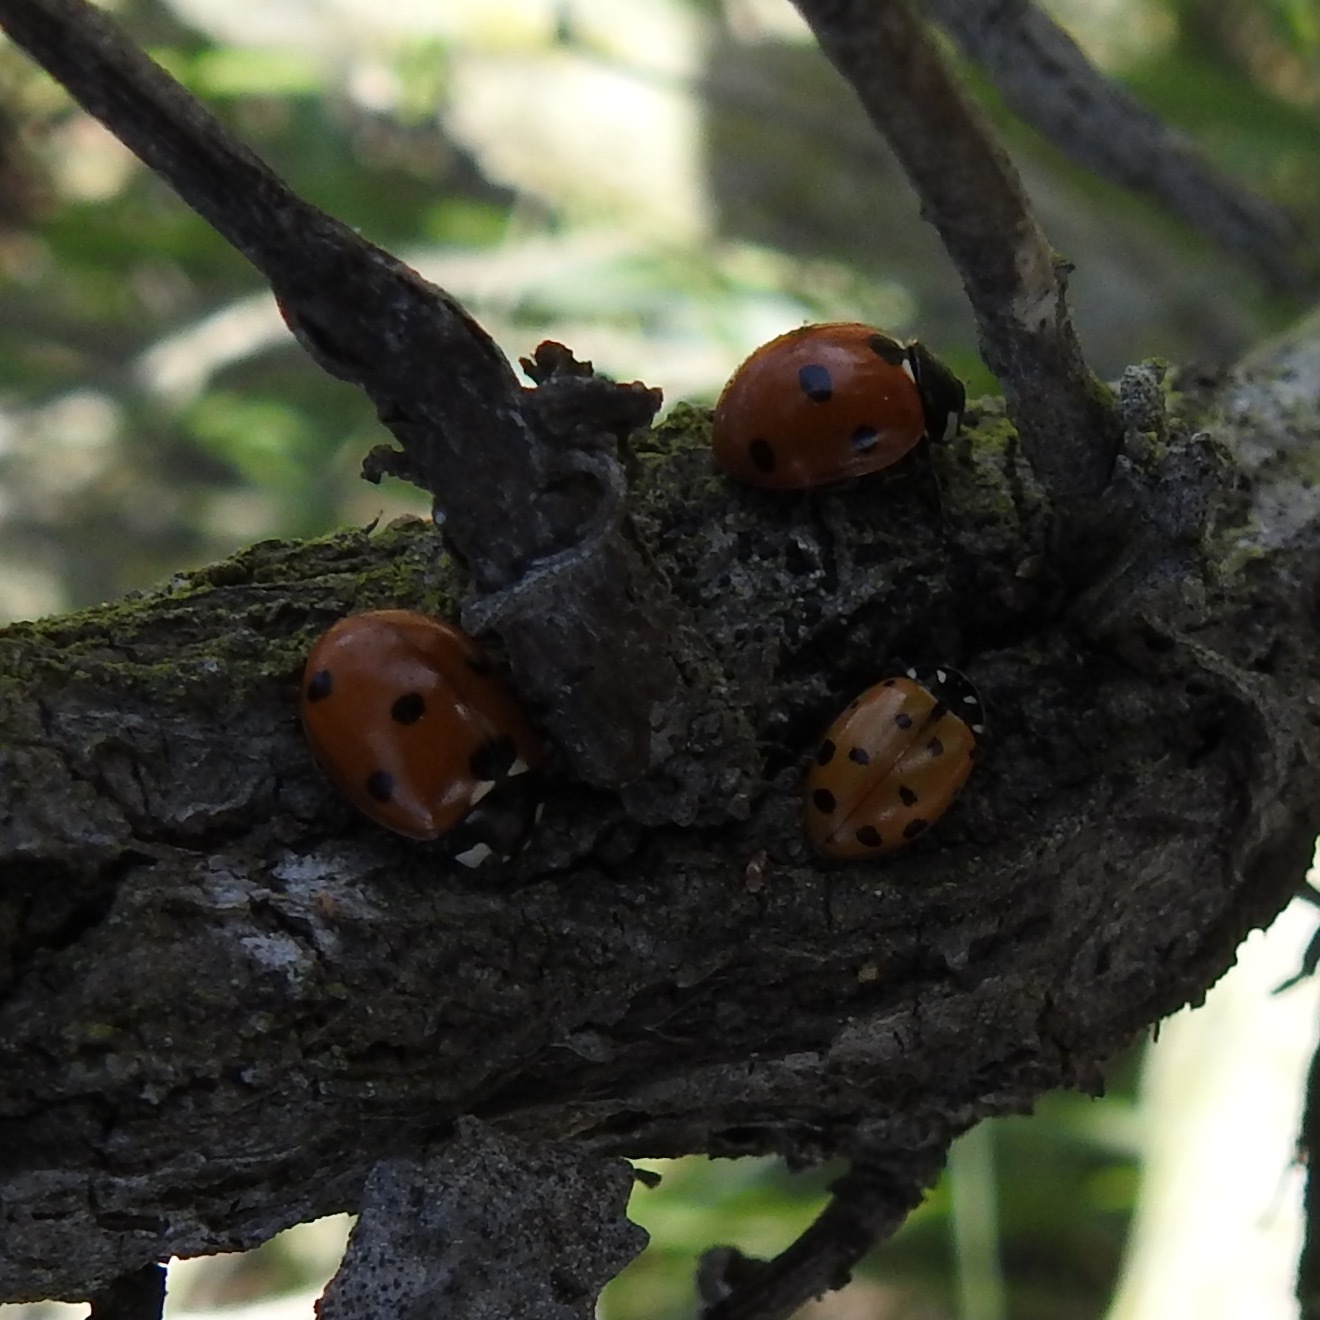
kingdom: Animalia
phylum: Arthropoda
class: Insecta
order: Coleoptera
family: Coccinellidae
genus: Coccinella
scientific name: Coccinella septempunctata
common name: Sevenspotted lady beetle
